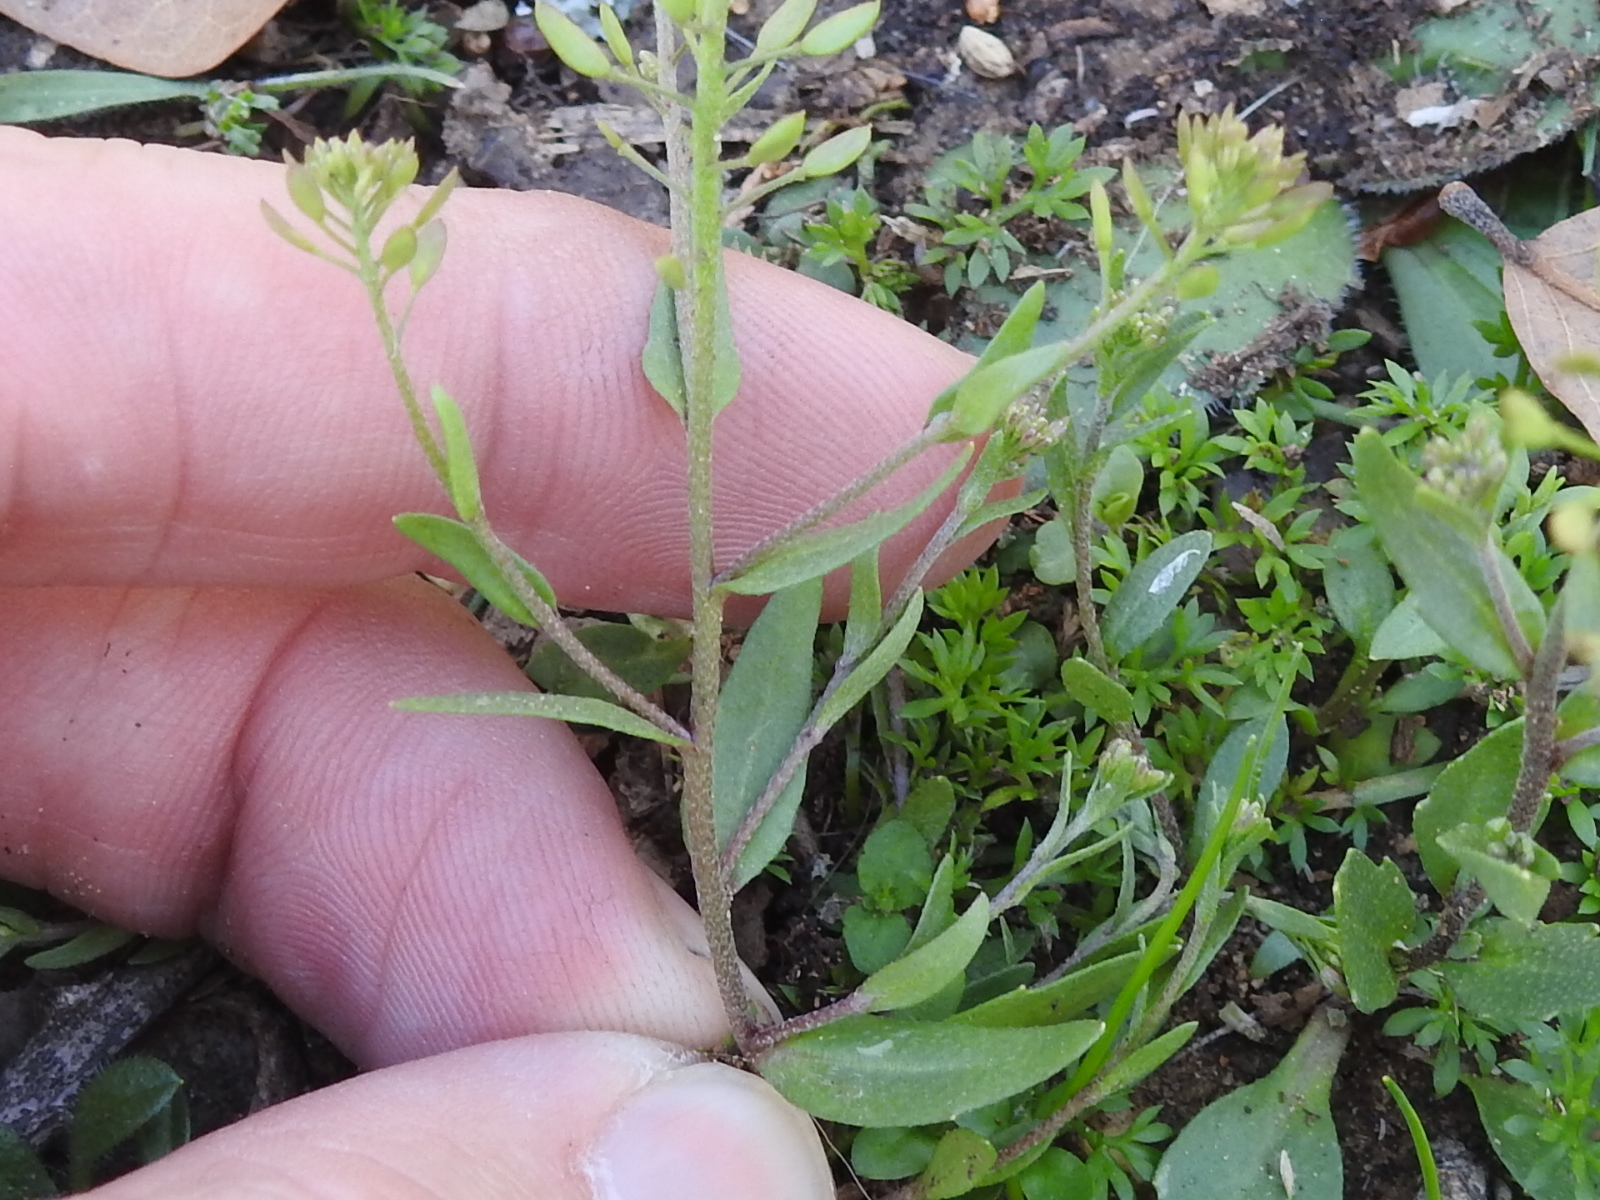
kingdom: Plantae
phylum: Tracheophyta
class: Magnoliopsida
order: Brassicales
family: Brassicaceae
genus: Abdra
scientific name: Abdra brachycarpa
